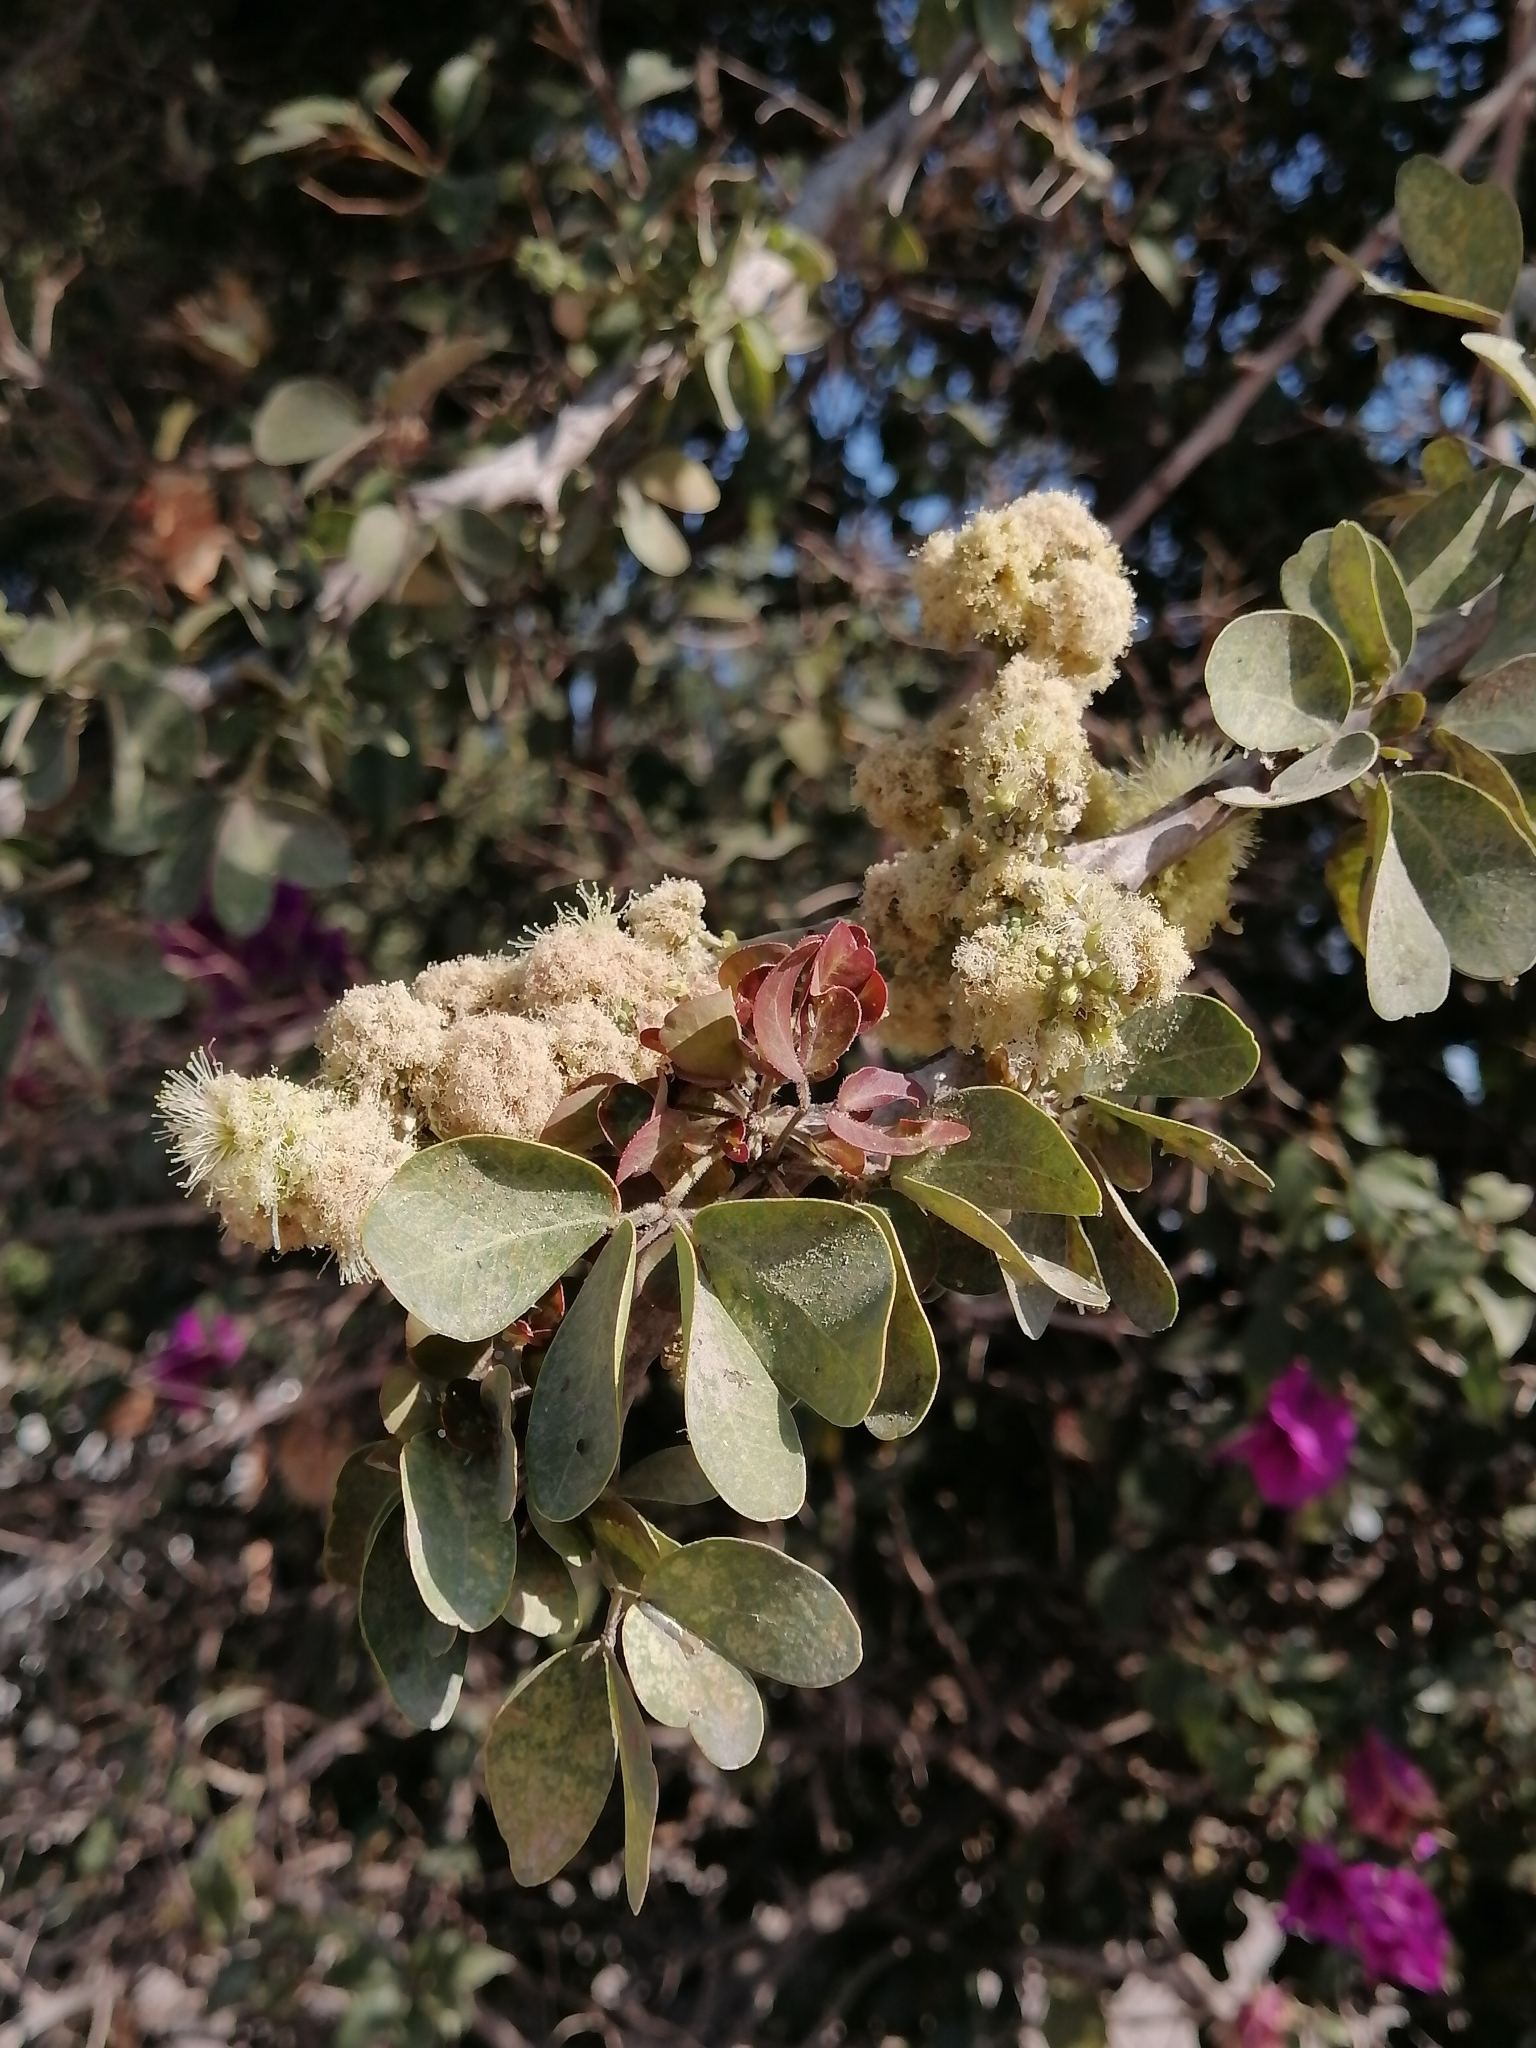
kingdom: Plantae
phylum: Tracheophyta
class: Magnoliopsida
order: Fabales
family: Fabaceae
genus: Pithecellobium
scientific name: Pithecellobium dulce
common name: Monkeypod
